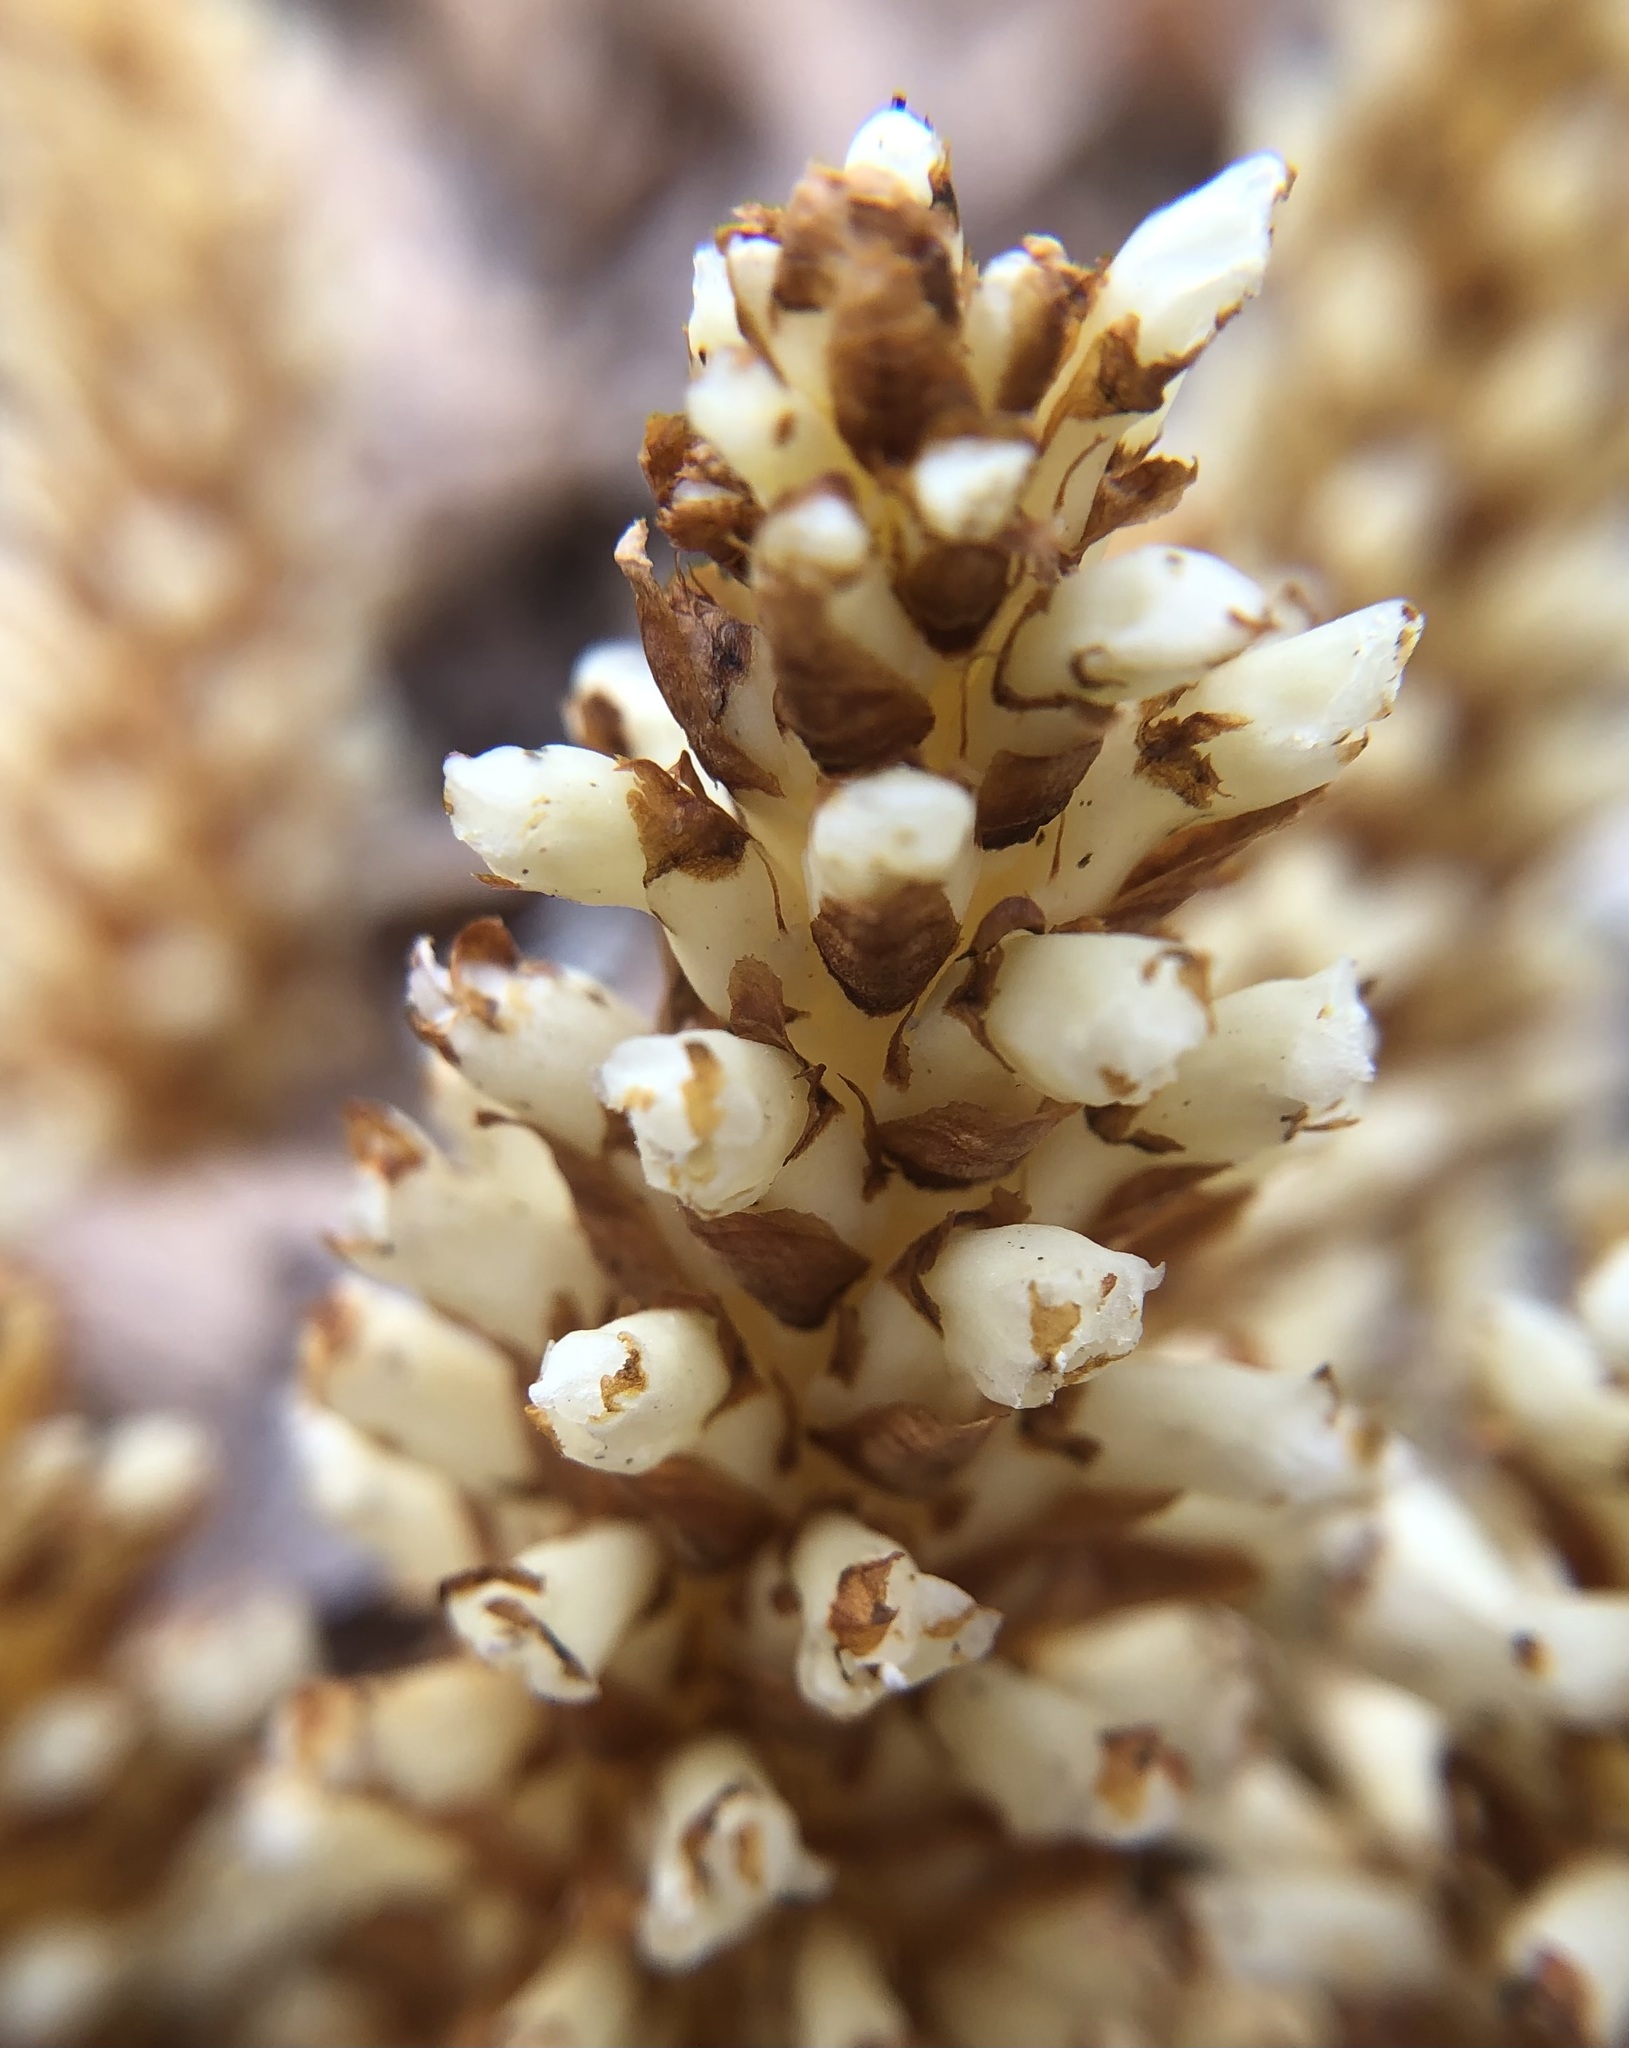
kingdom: Plantae
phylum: Tracheophyta
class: Magnoliopsida
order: Lamiales
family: Orobanchaceae
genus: Conopholis
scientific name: Conopholis americana
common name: American cancer-root
